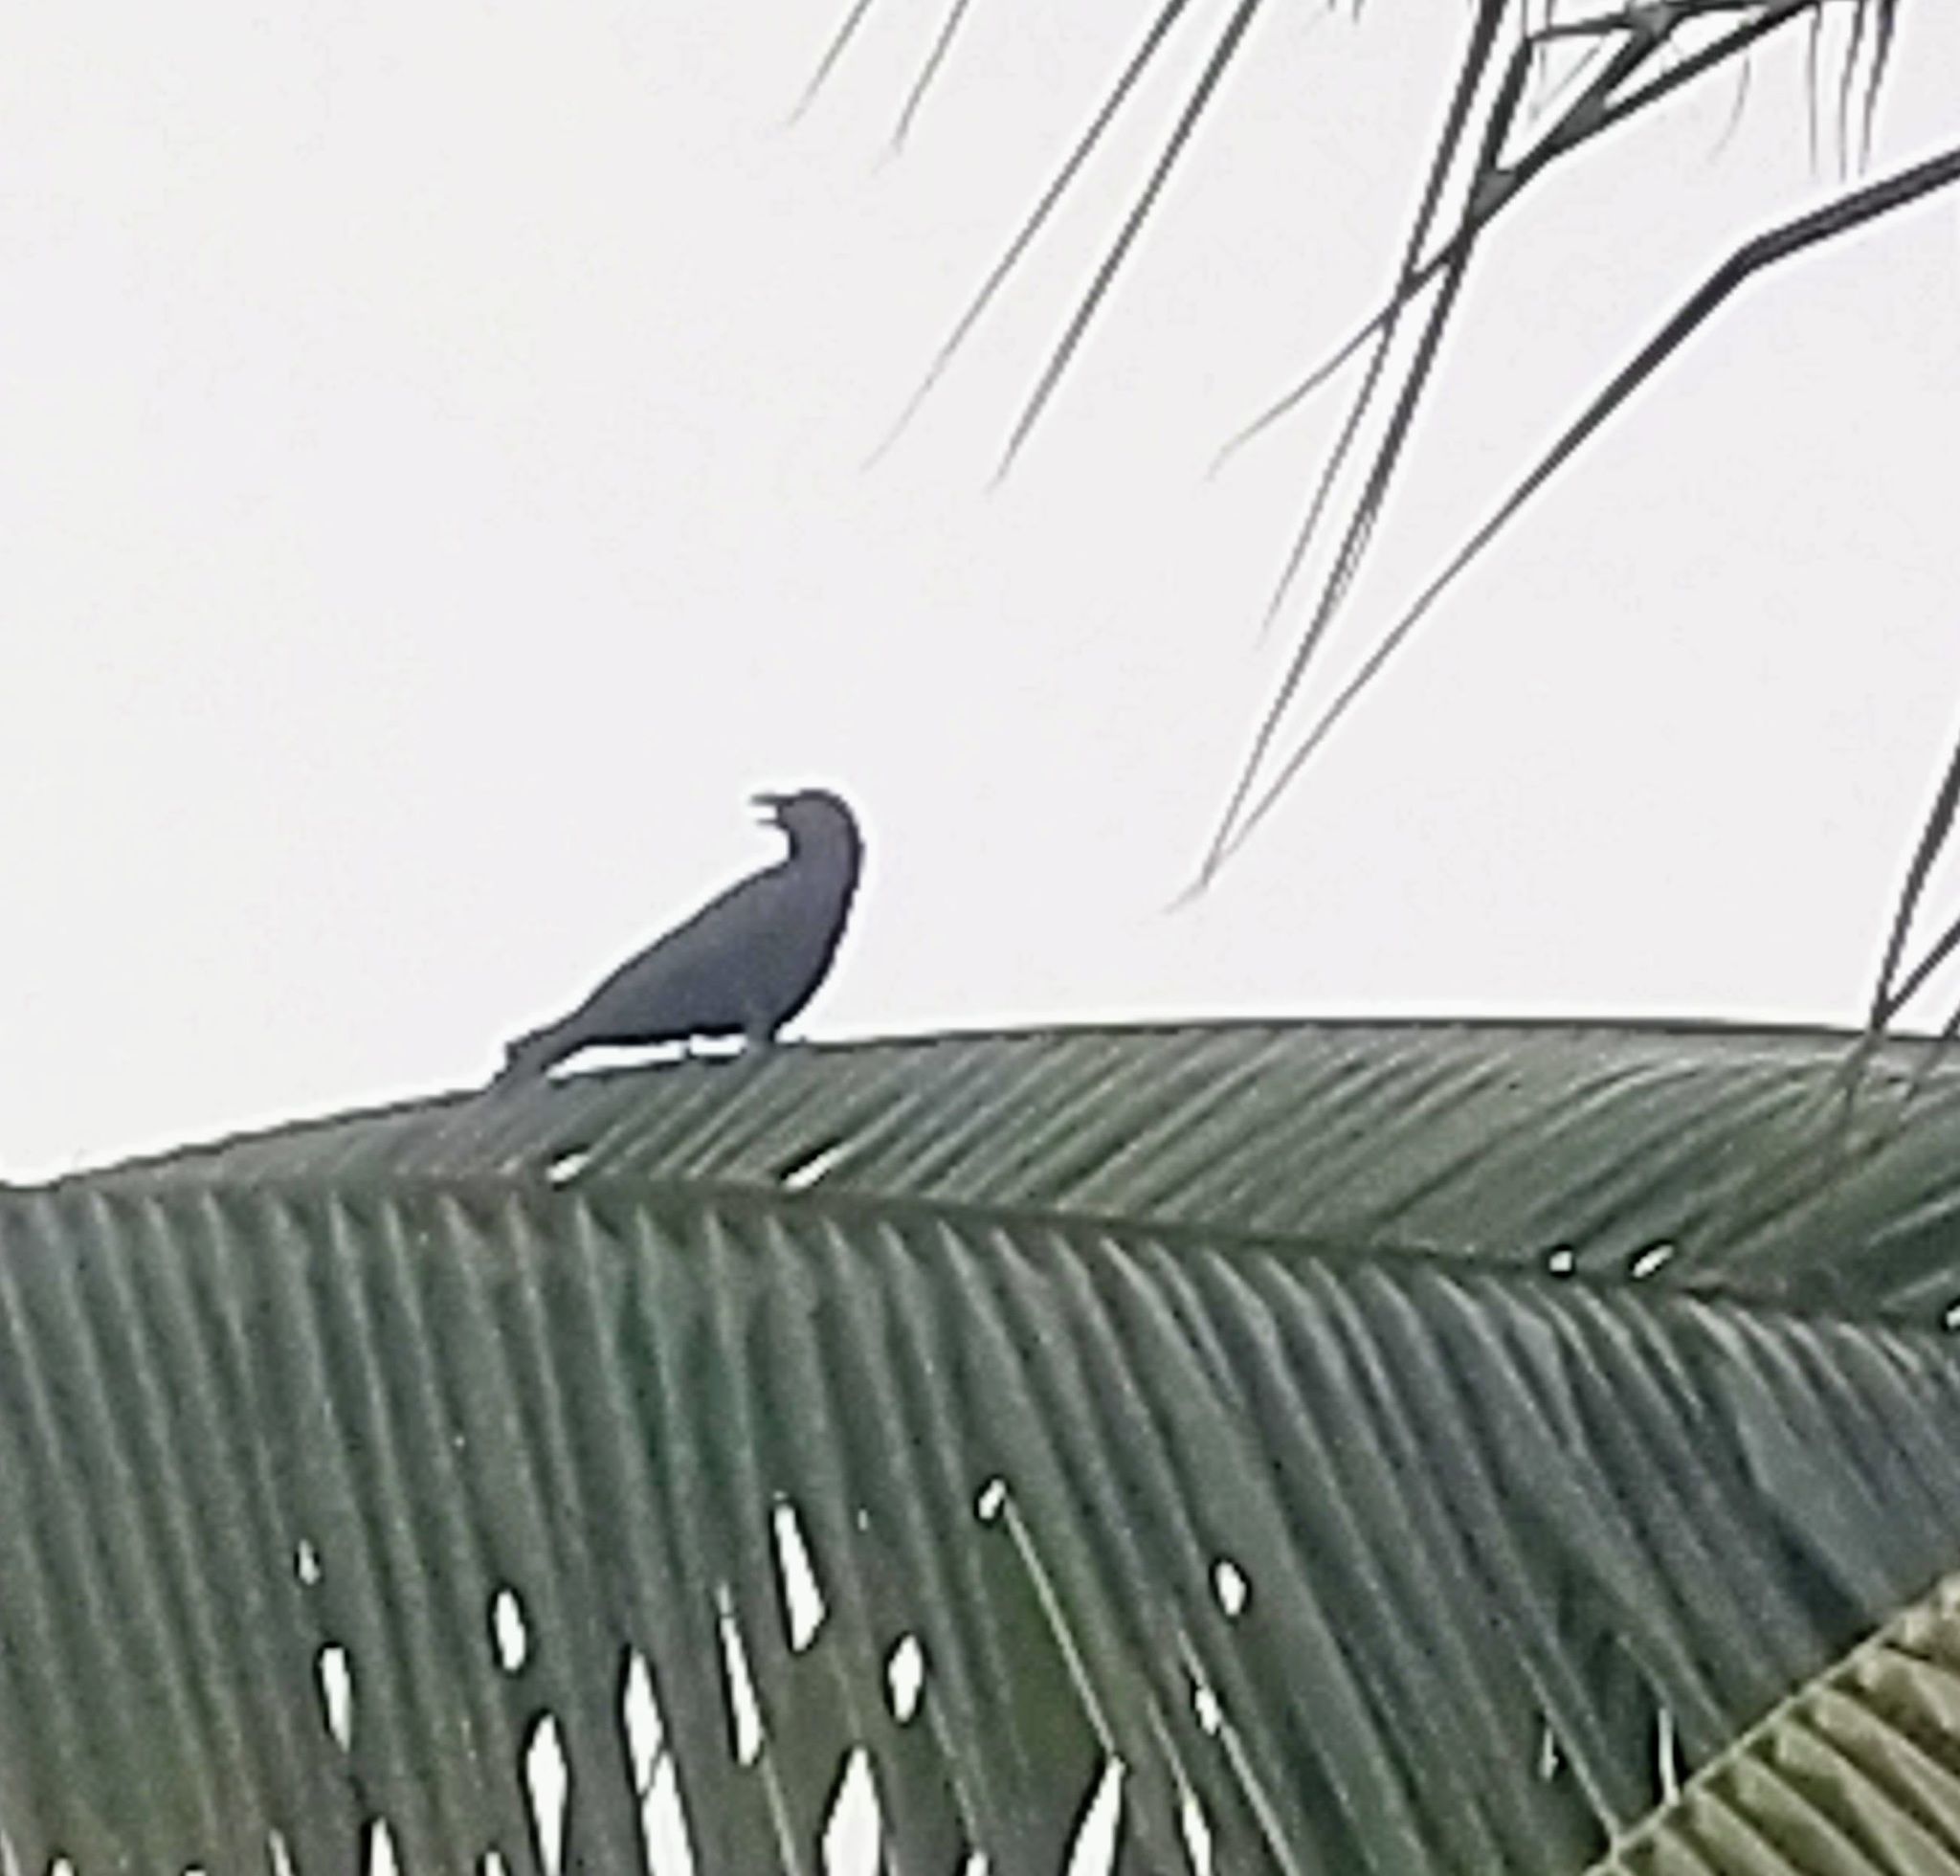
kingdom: Animalia
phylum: Chordata
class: Aves
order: Passeriformes
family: Corvidae
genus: Corvus
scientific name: Corvus macrorhynchos
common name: Large-billed crow
